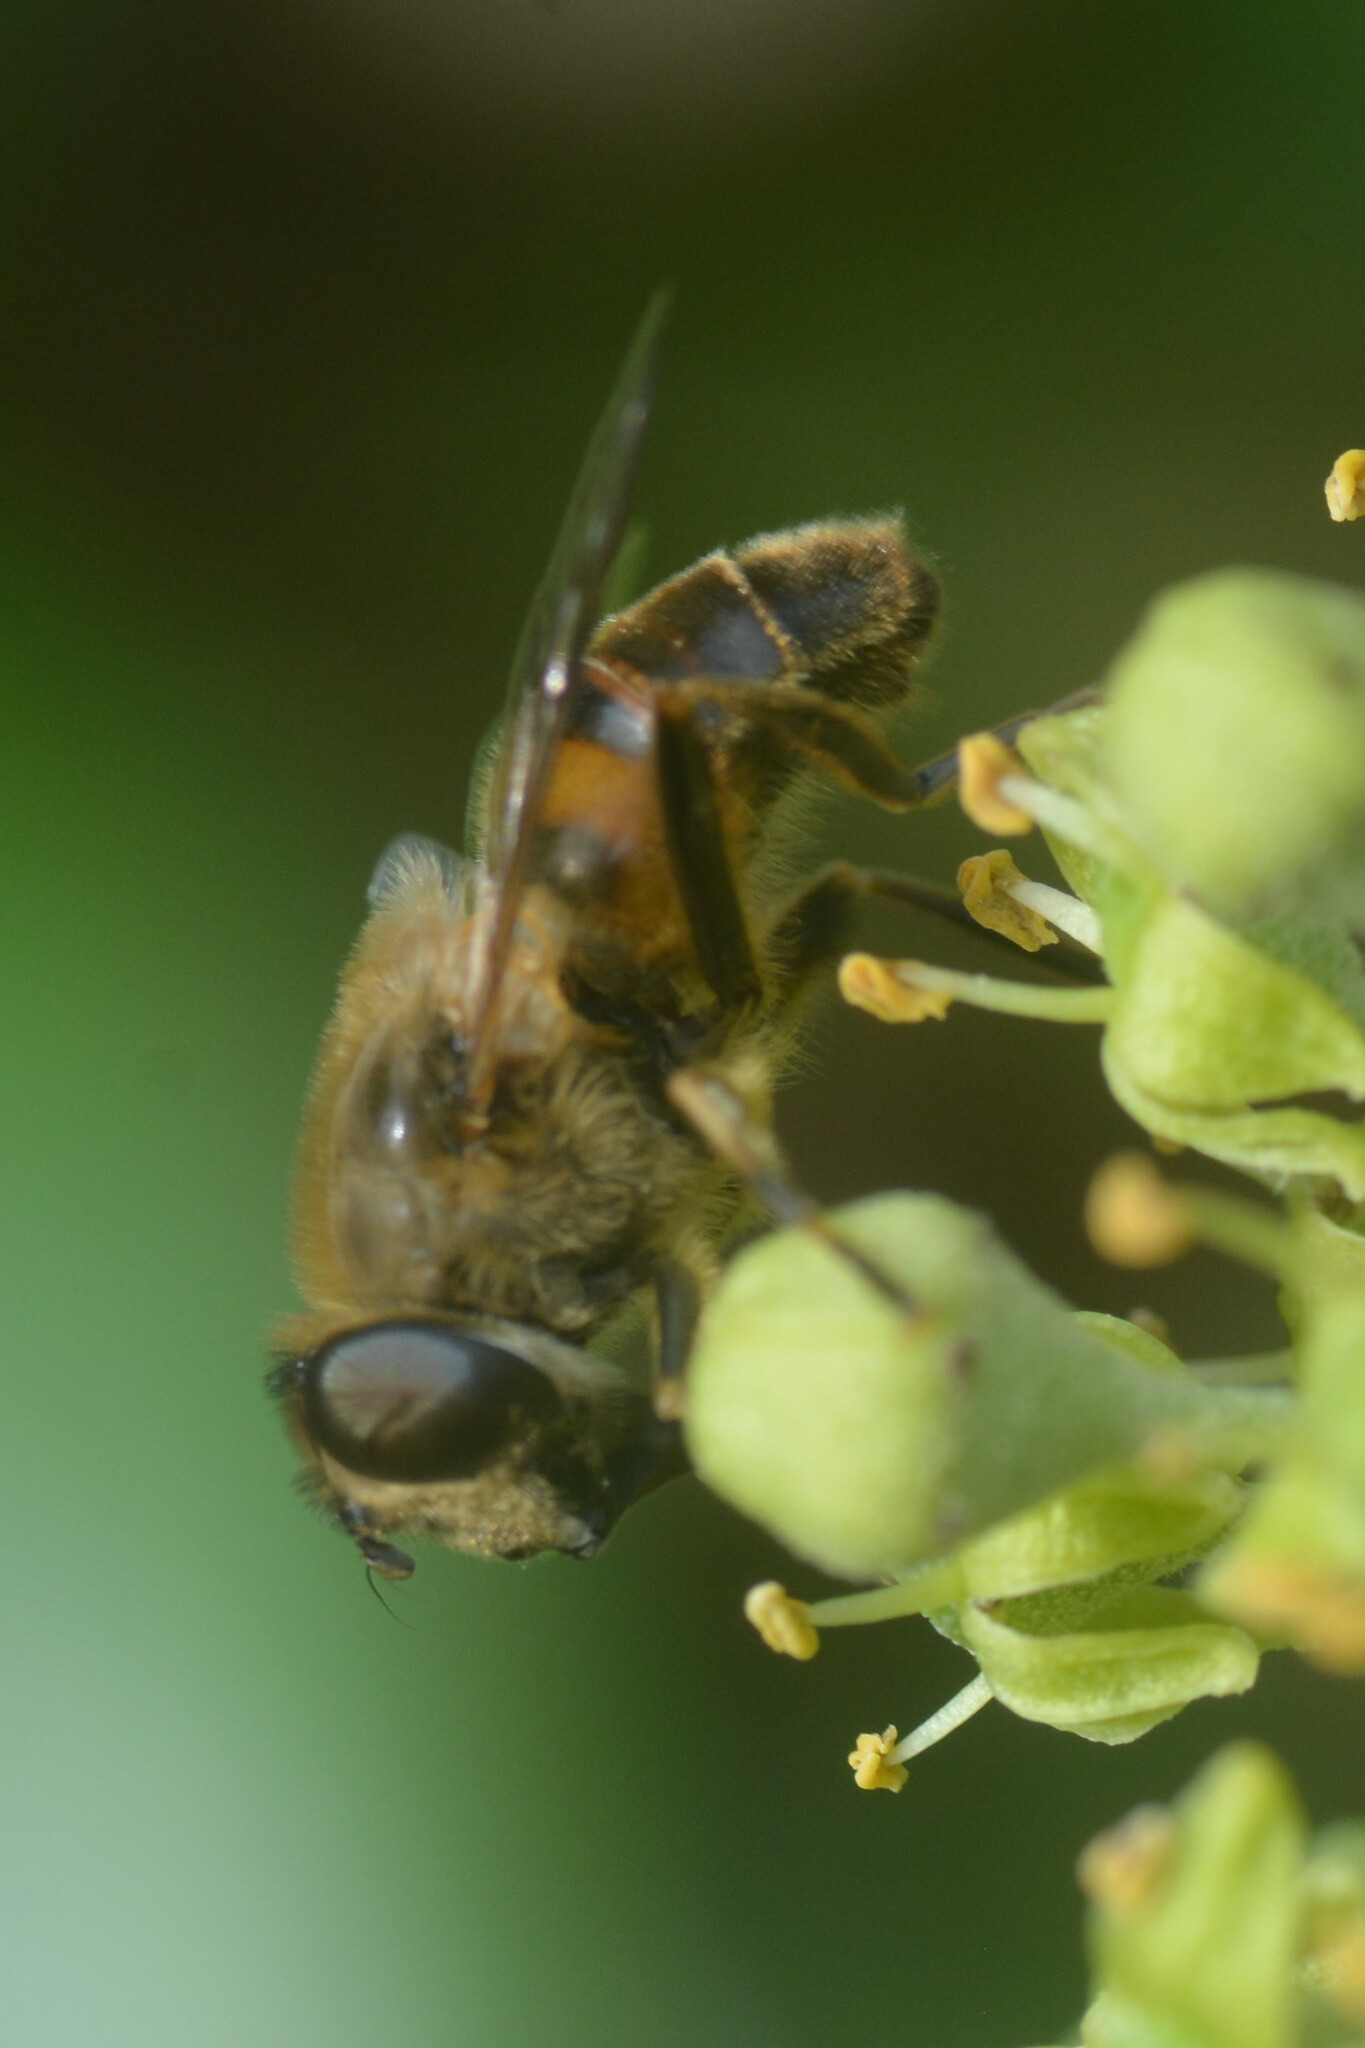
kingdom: Animalia
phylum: Arthropoda
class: Insecta
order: Diptera
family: Syrphidae
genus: Eristalis
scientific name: Eristalis tenax
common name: Drone fly
